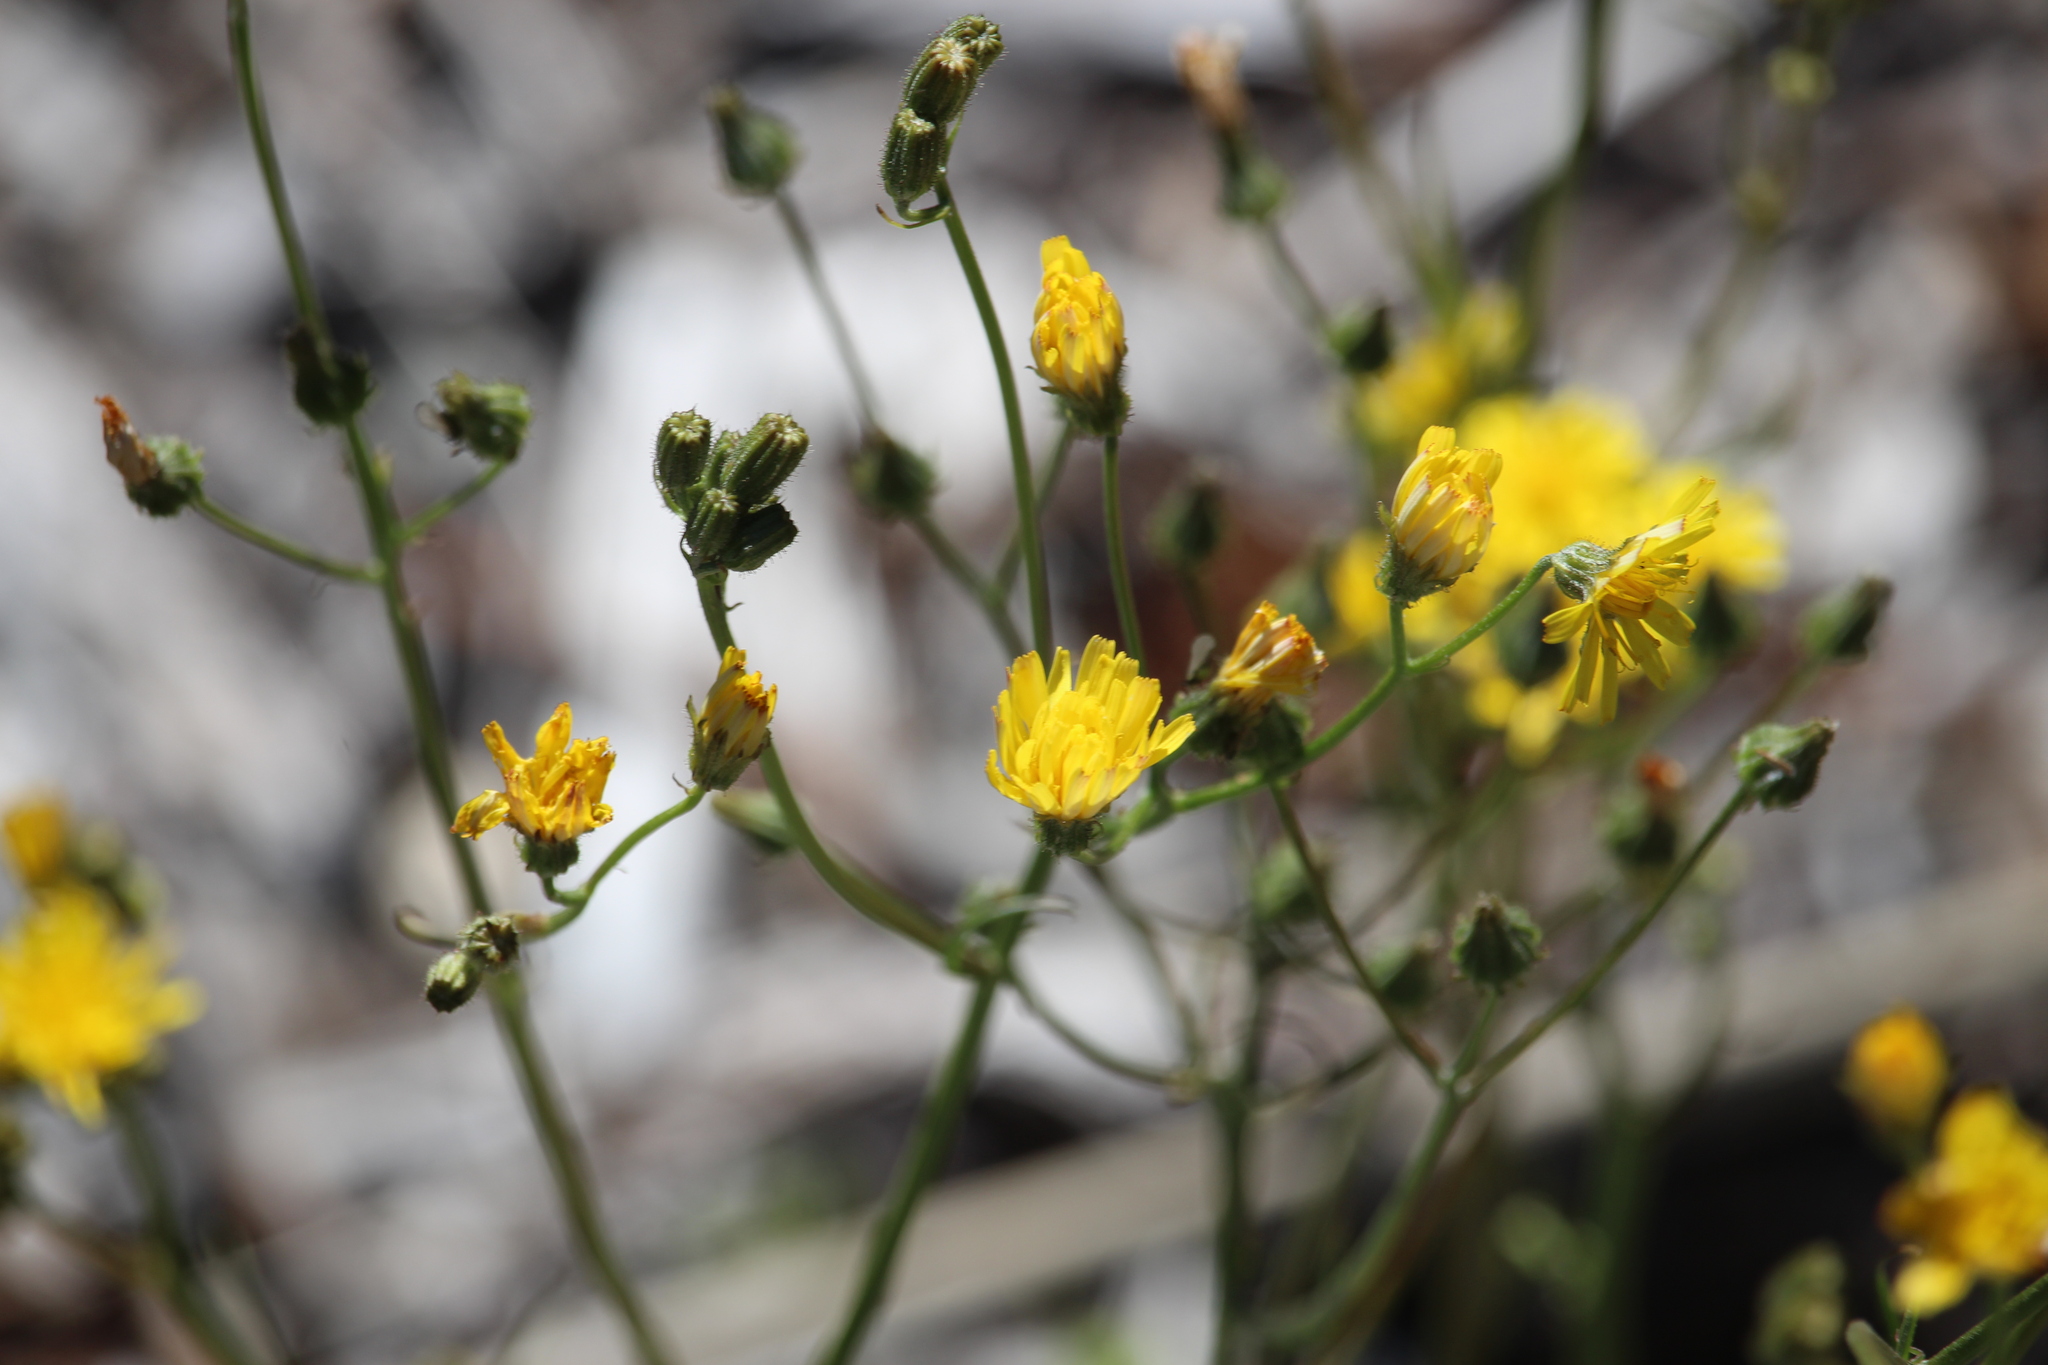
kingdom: Plantae
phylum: Tracheophyta
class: Magnoliopsida
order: Asterales
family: Asteraceae
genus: Crepis
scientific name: Crepis capillaris
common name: Smooth hawksbeard
